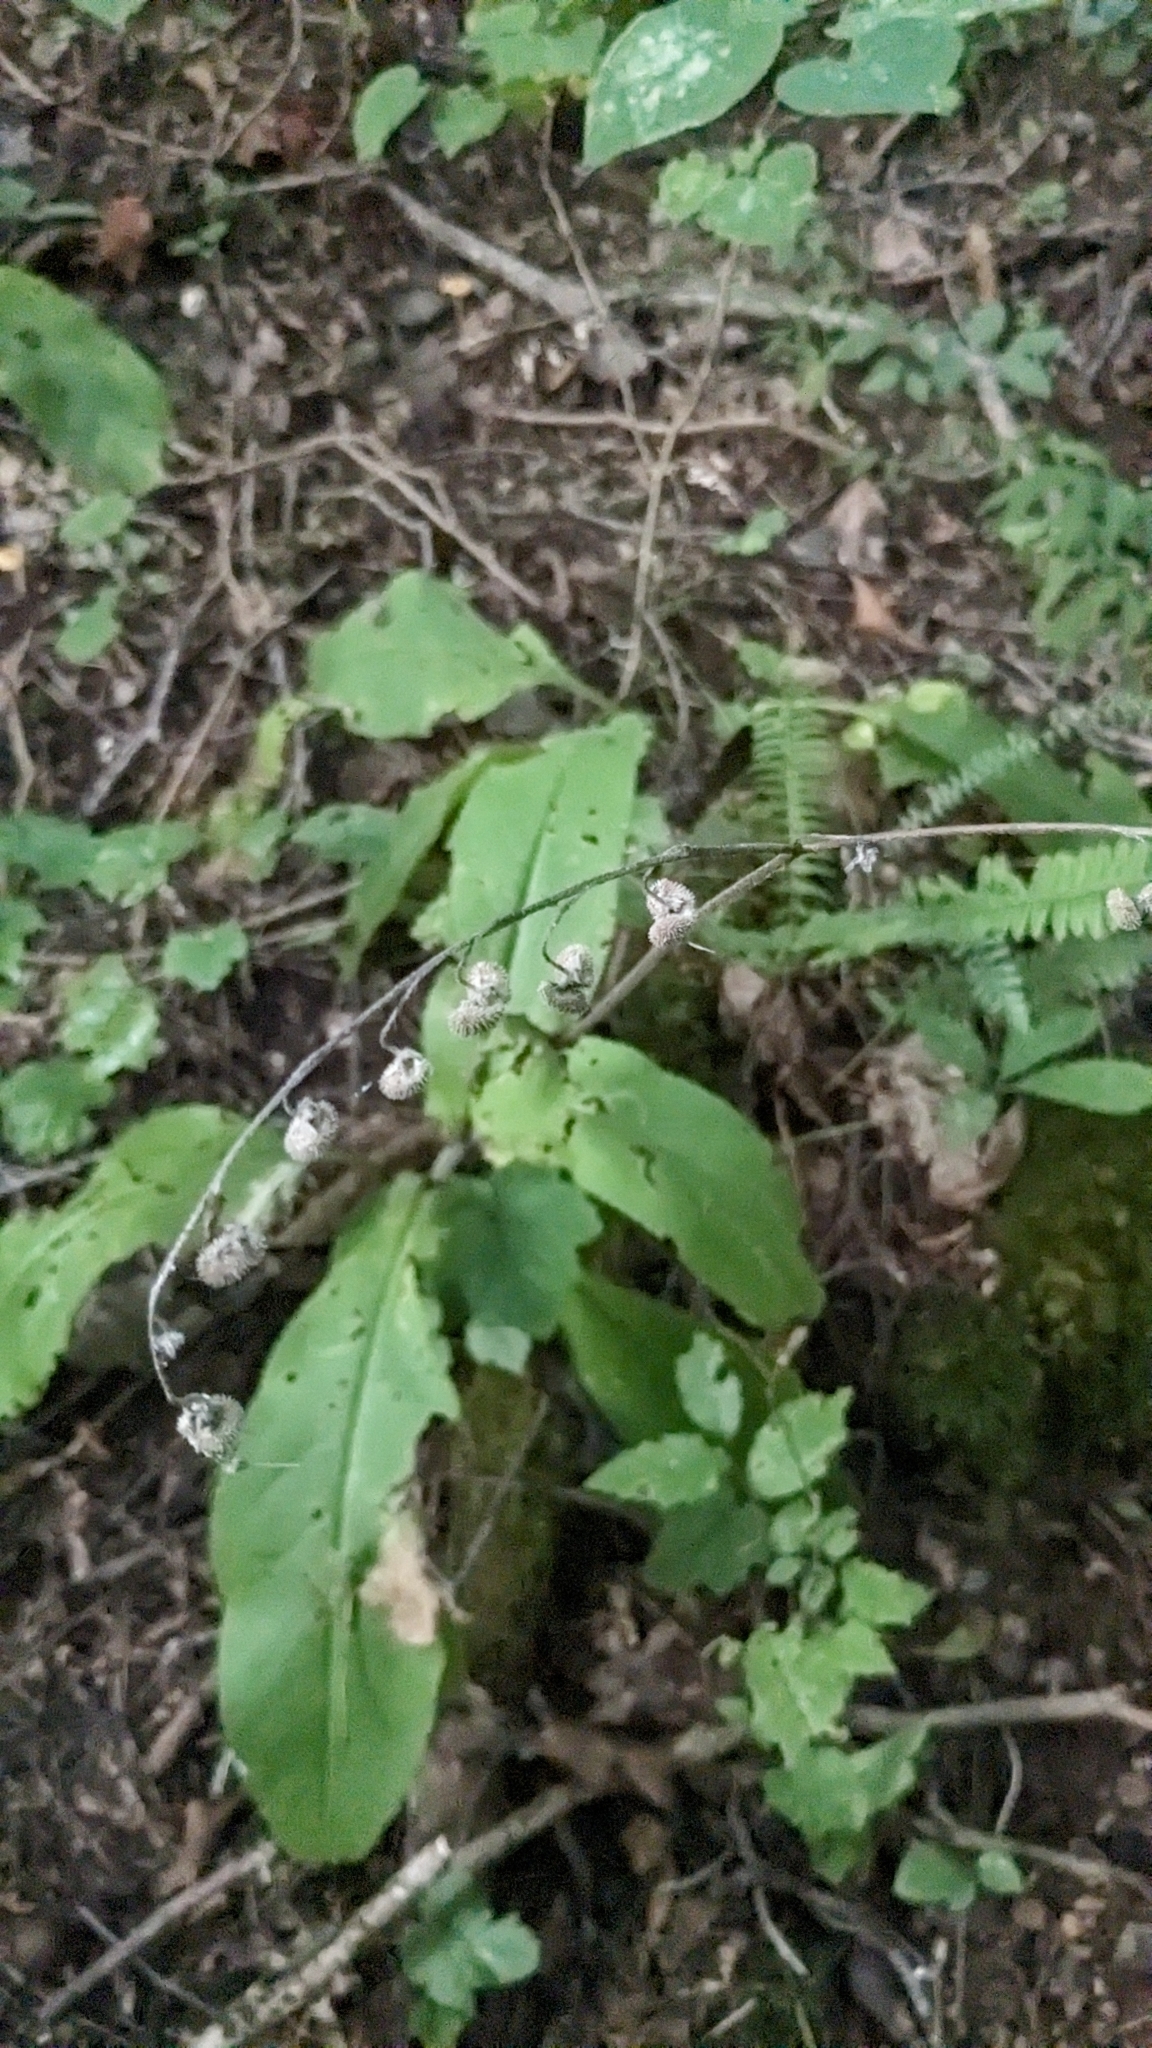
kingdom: Plantae
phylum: Tracheophyta
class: Magnoliopsida
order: Boraginales
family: Boraginaceae
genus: Andersonglossum
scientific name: Andersonglossum virginianum
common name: Wild comfrey
